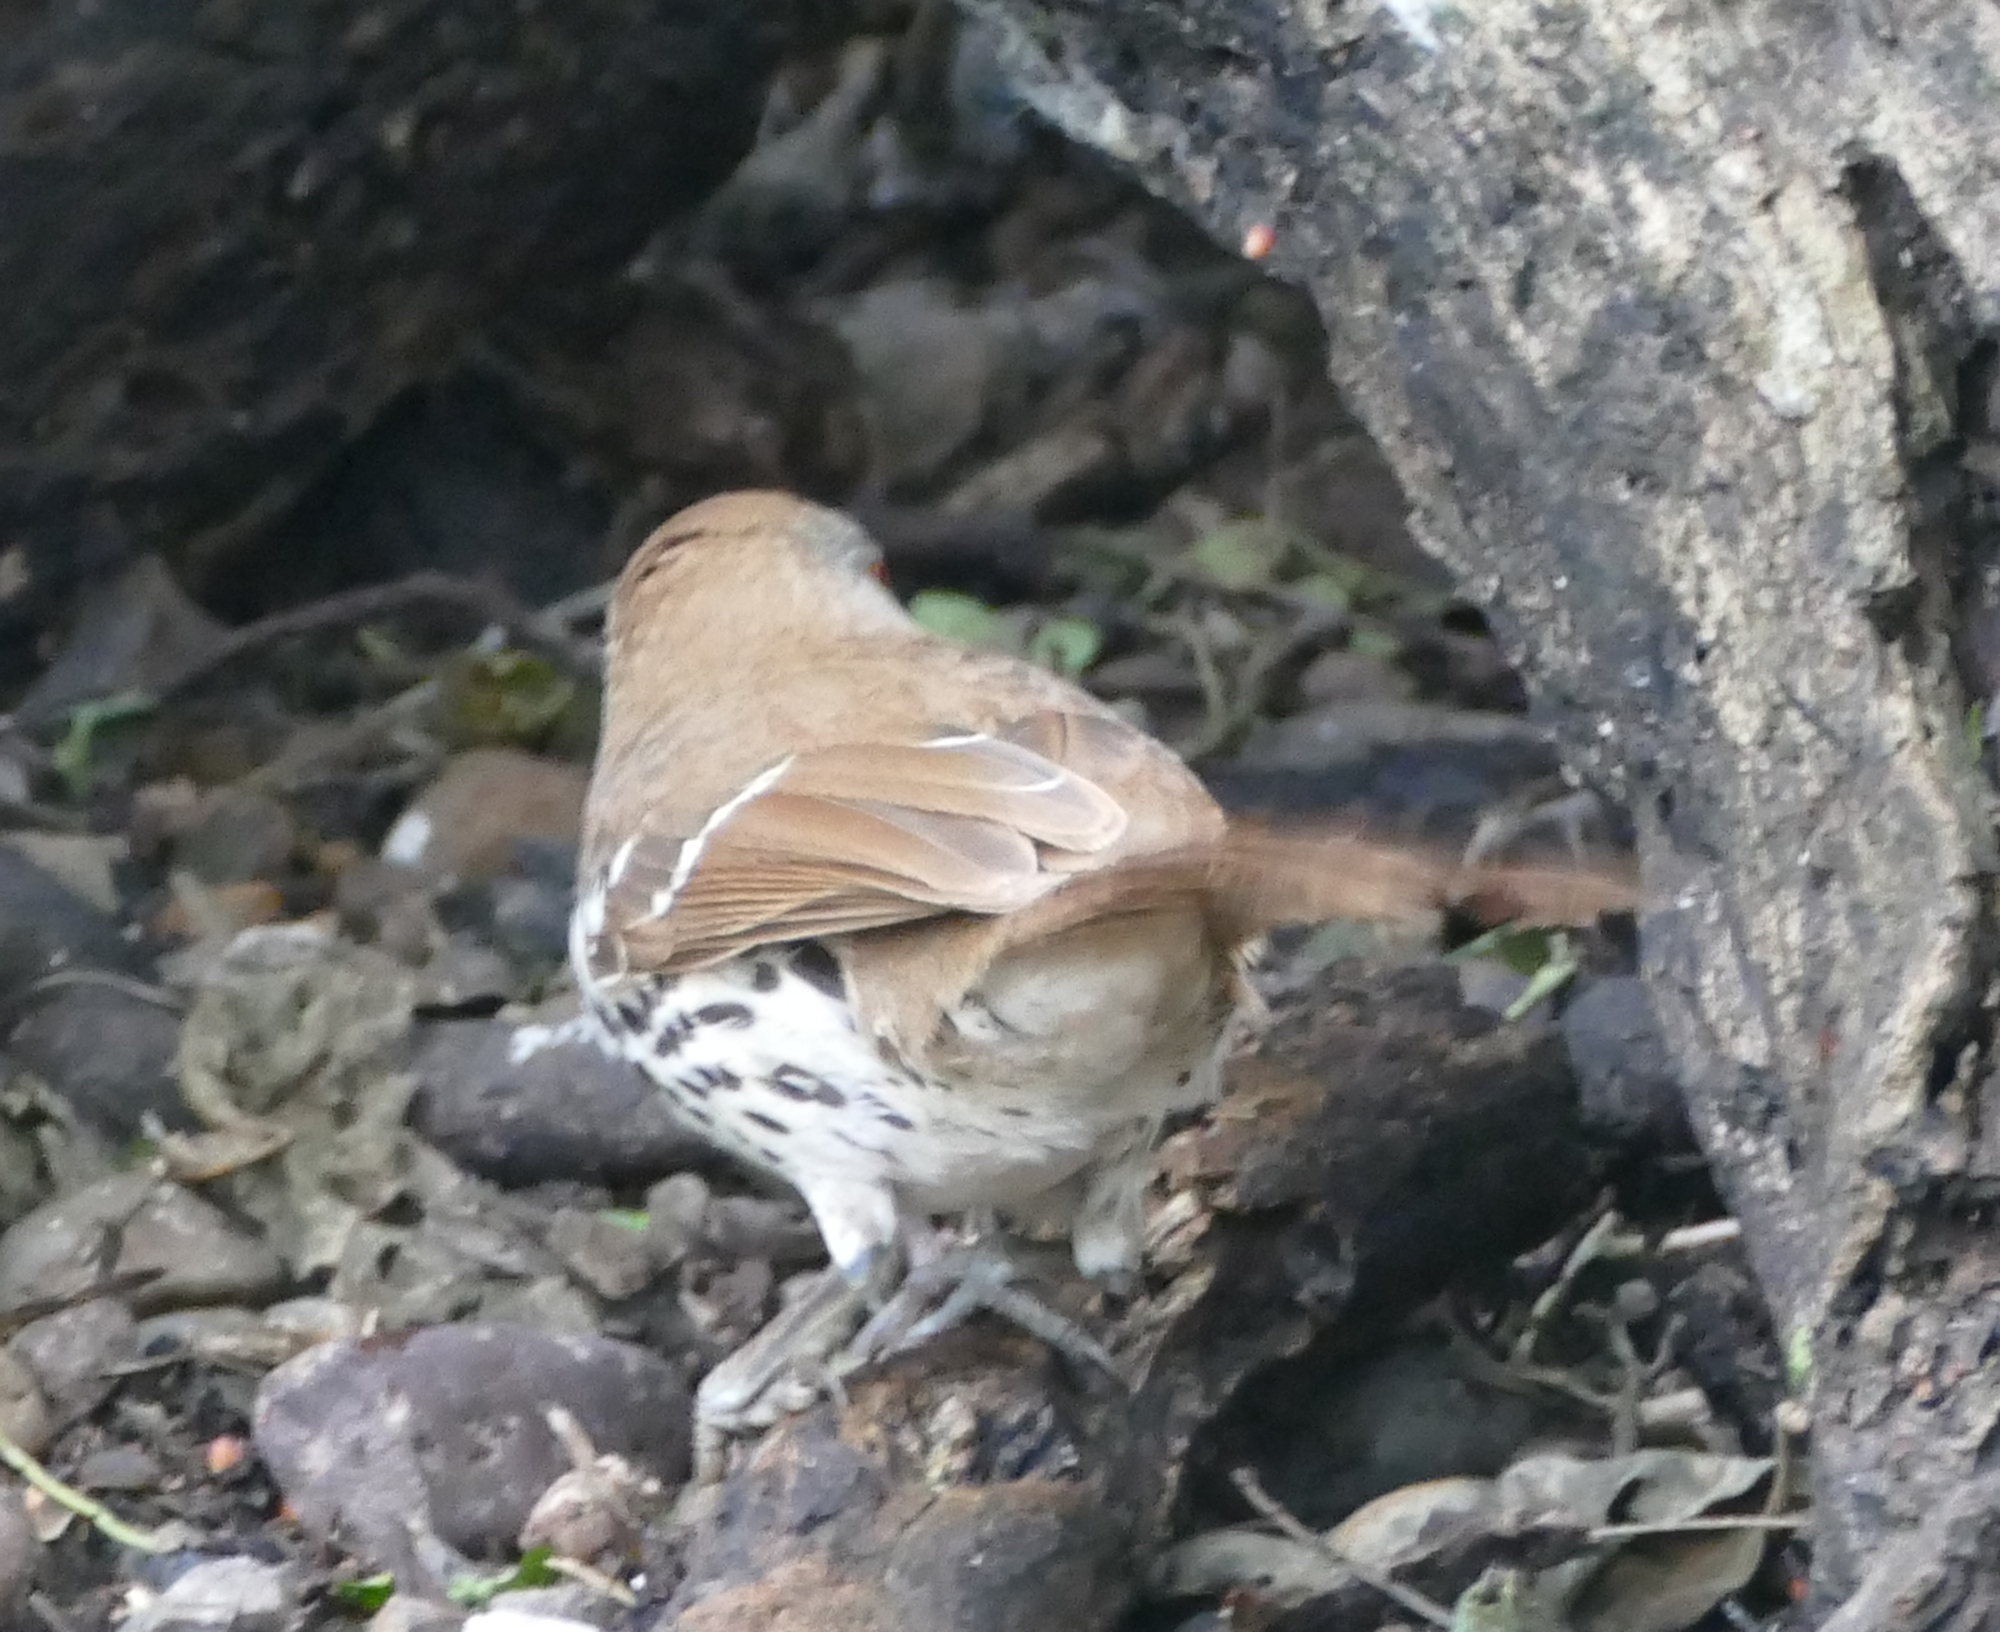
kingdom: Animalia
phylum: Chordata
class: Aves
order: Passeriformes
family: Mimidae
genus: Toxostoma
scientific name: Toxostoma longirostre
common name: Long-billed thrasher
